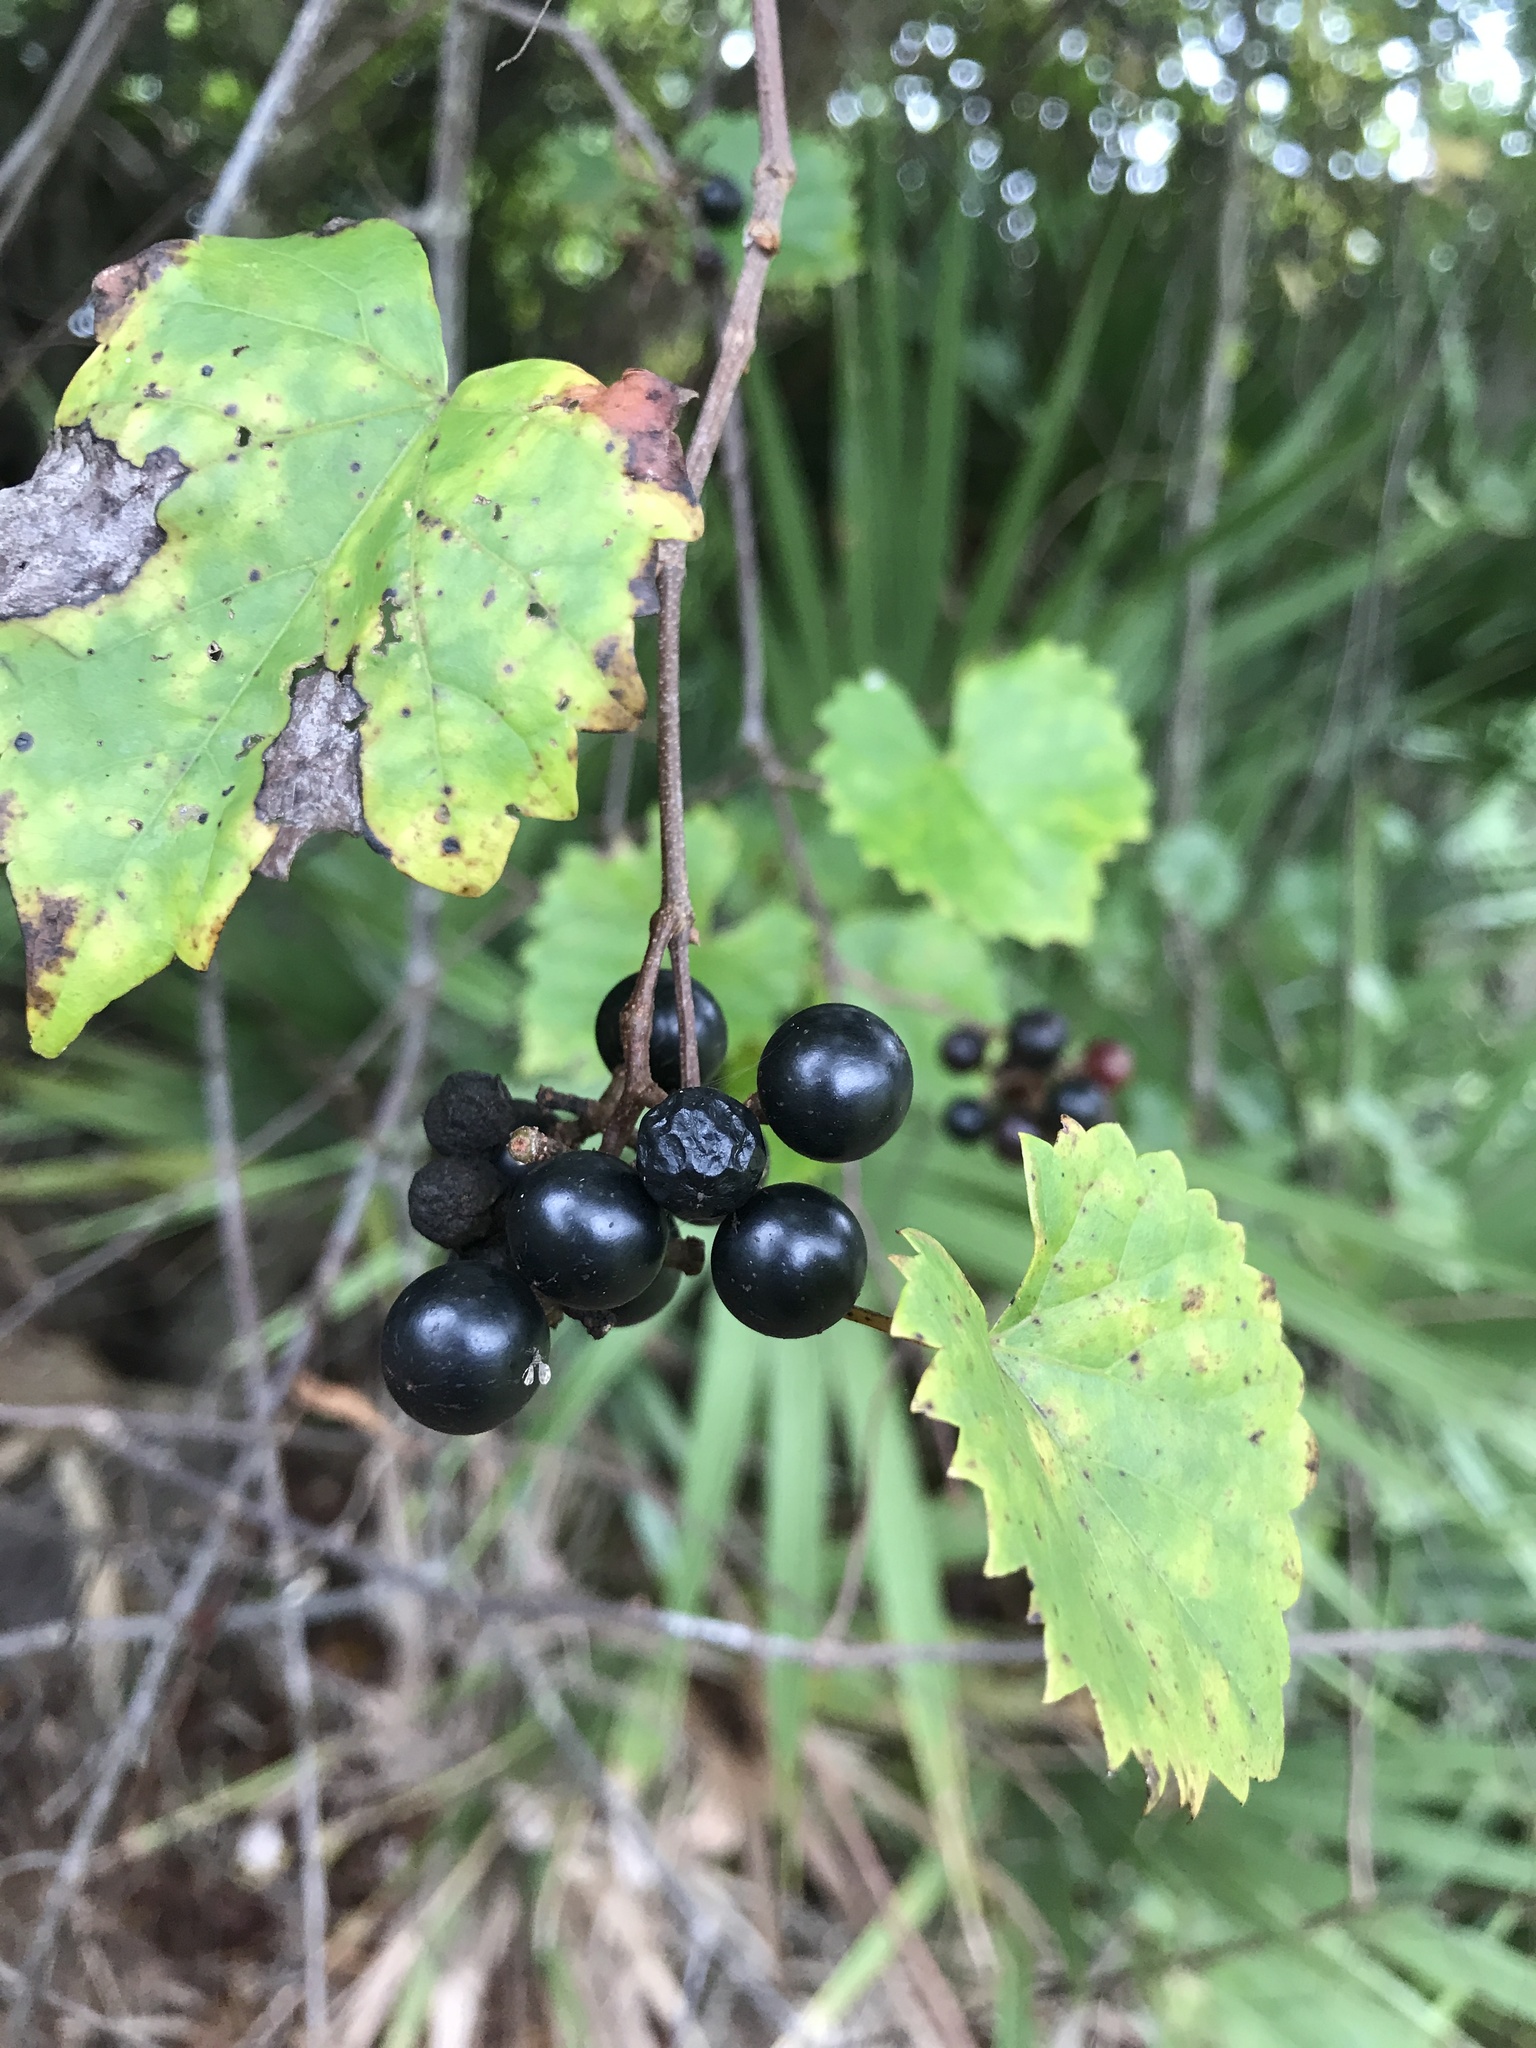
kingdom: Plantae
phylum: Tracheophyta
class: Magnoliopsida
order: Vitales
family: Vitaceae
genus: Vitis
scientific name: Vitis rotundifolia
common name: Muscadine grape
